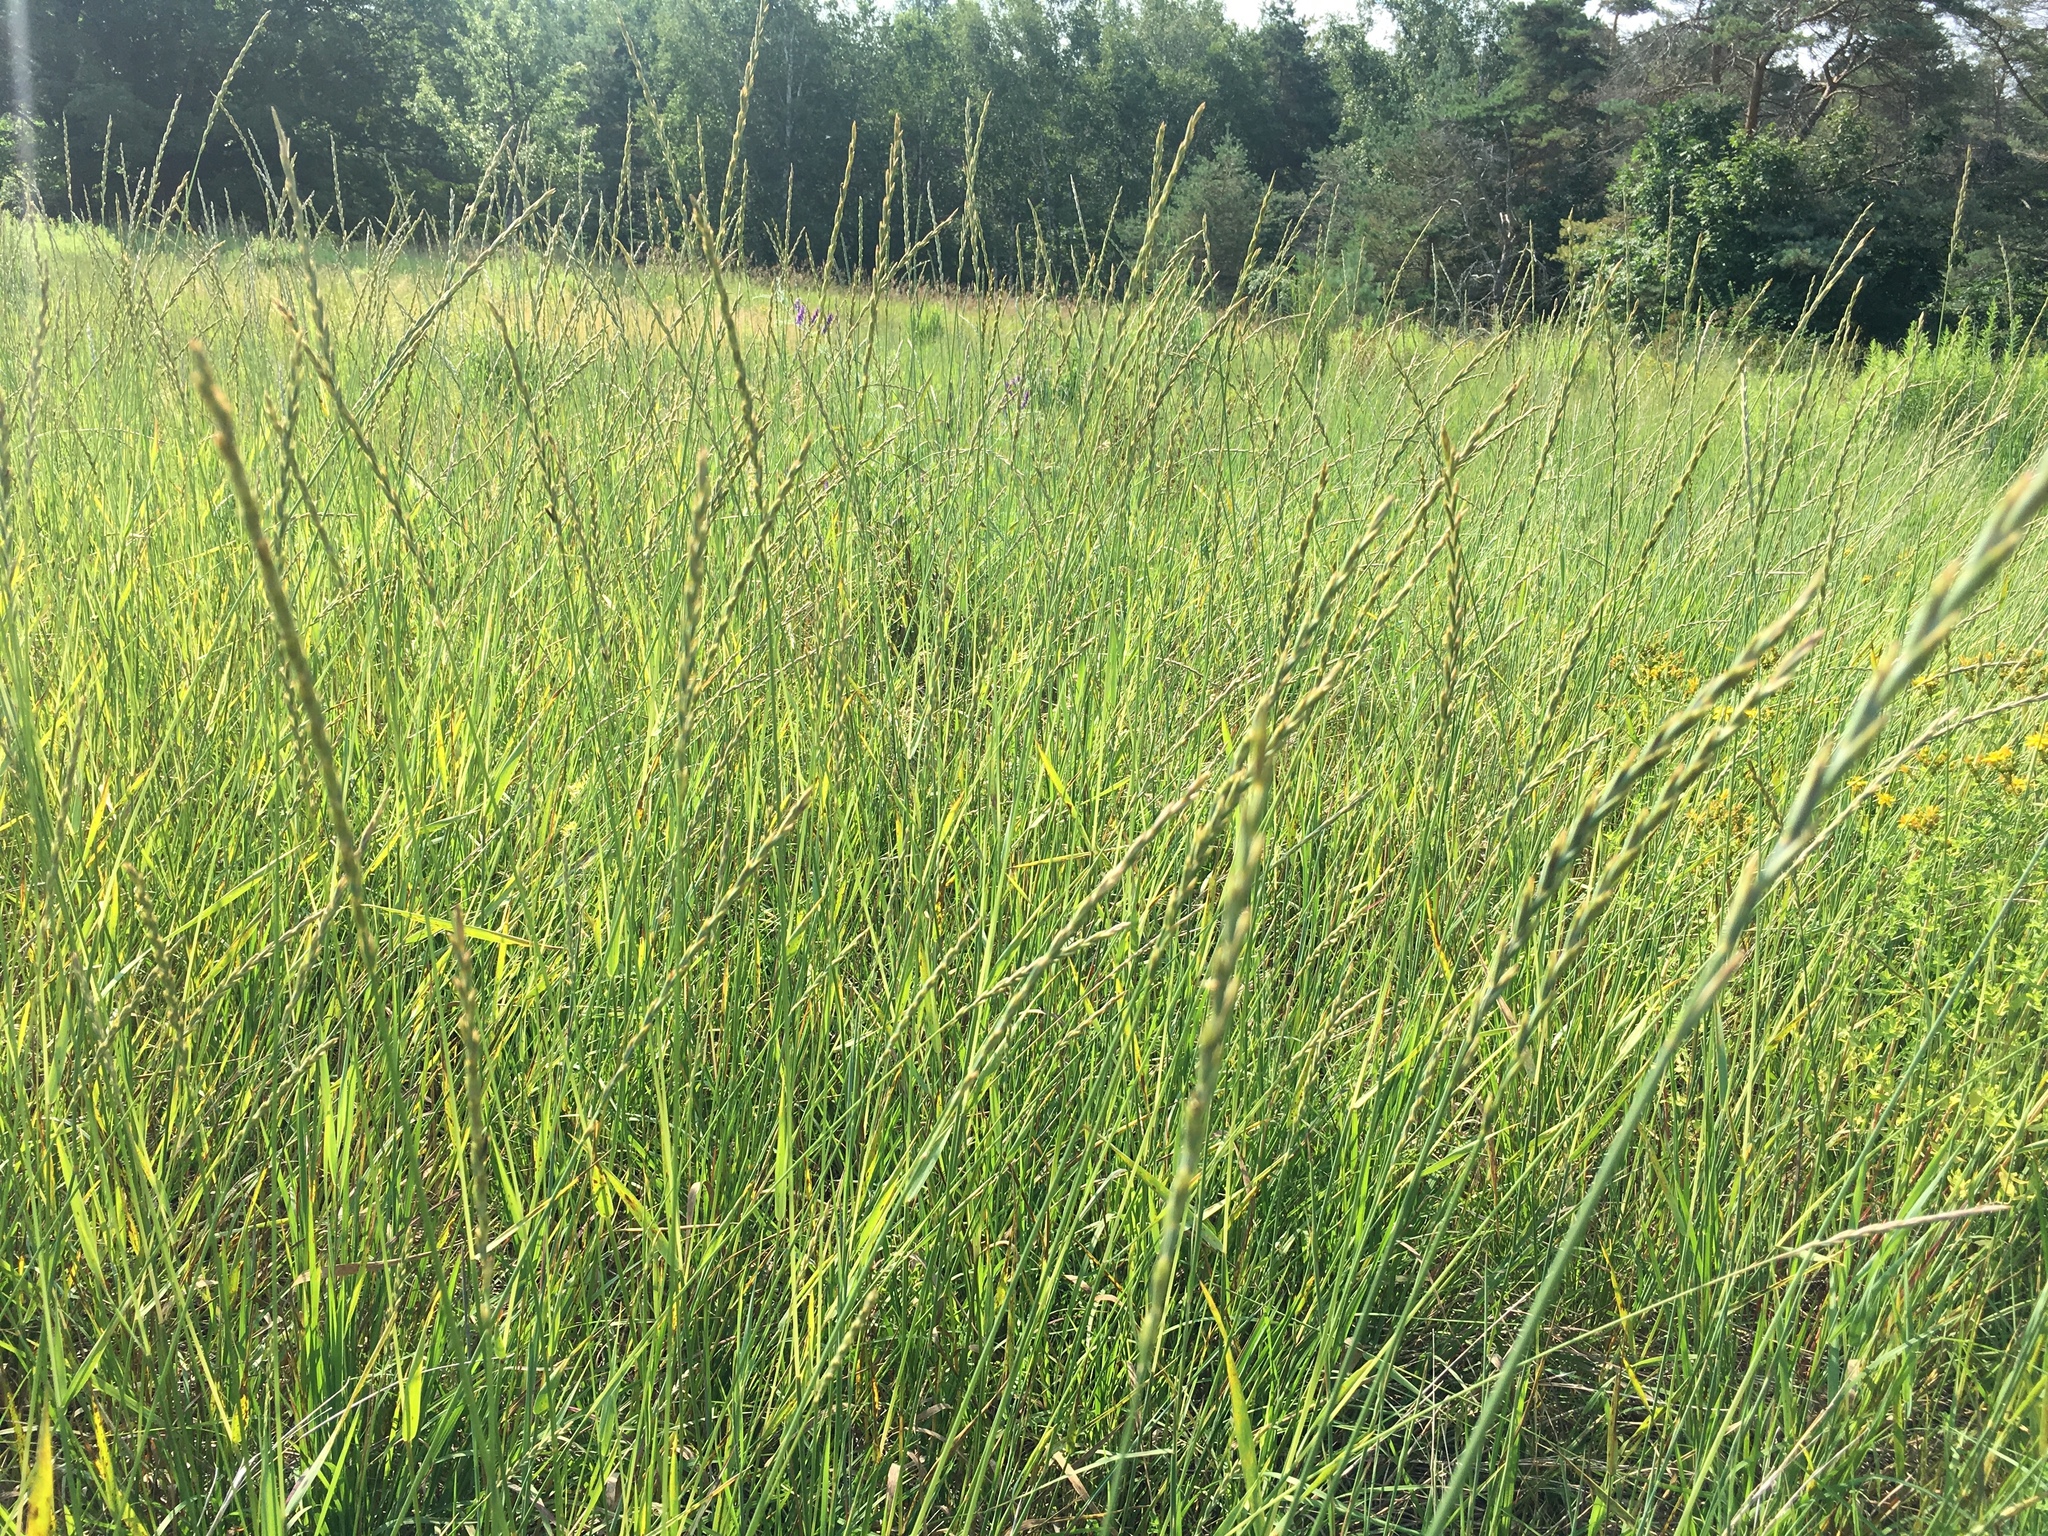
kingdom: Plantae
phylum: Tracheophyta
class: Liliopsida
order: Poales
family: Poaceae
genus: Elymus
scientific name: Elymus repens
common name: Quackgrass
